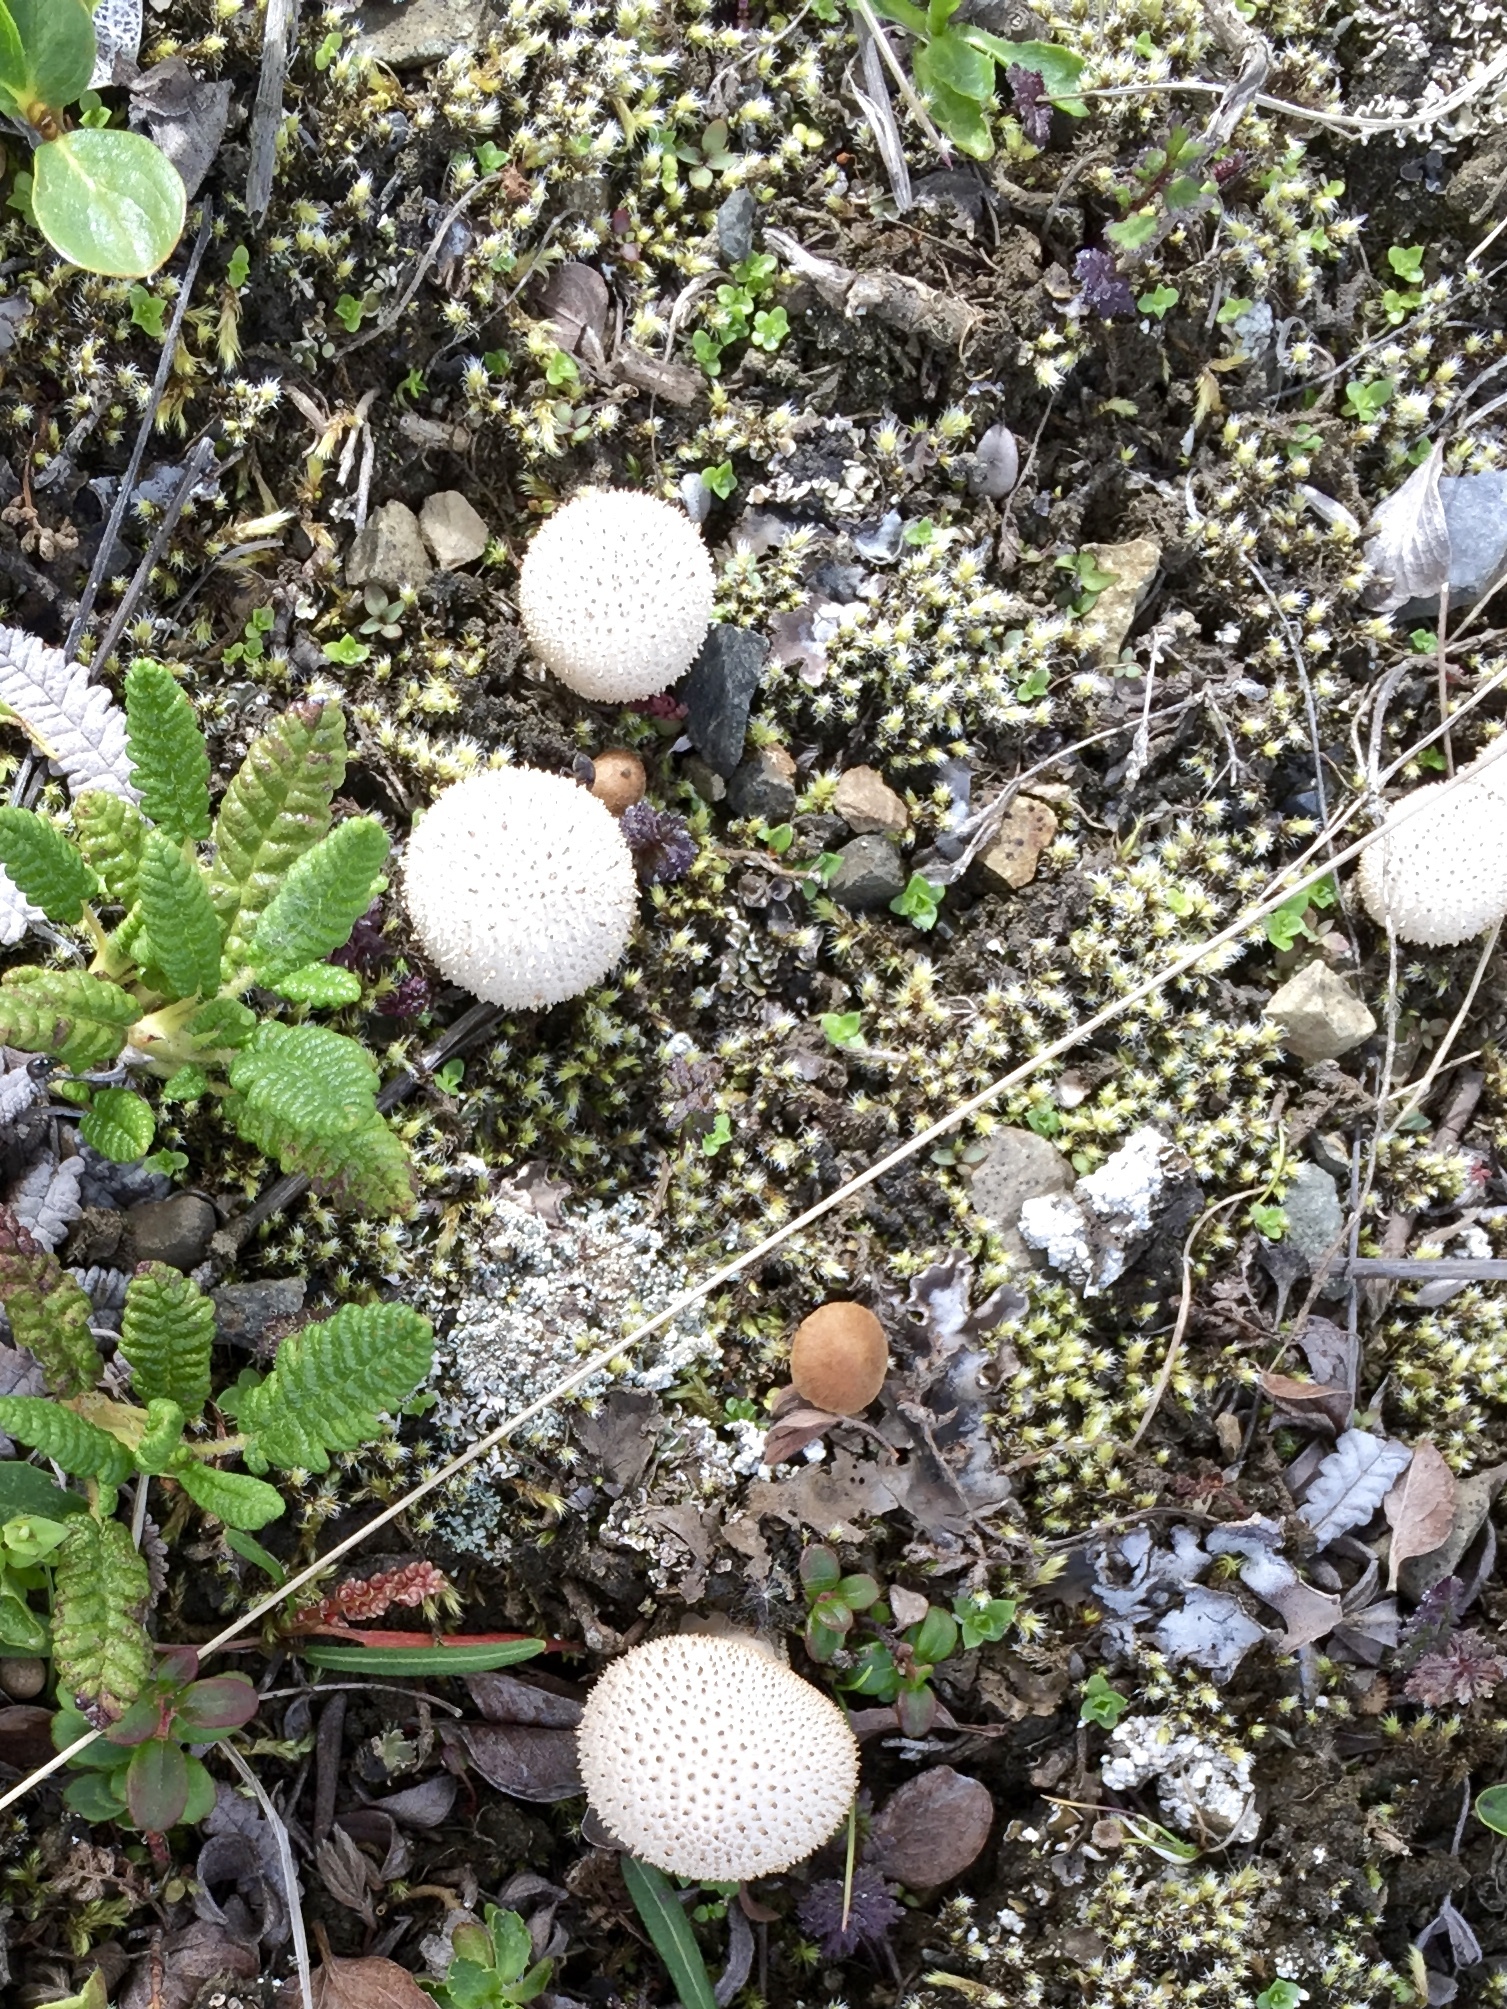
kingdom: Fungi
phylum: Basidiomycota
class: Agaricomycetes
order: Agaricales
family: Lycoperdaceae
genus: Lycoperdon
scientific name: Lycoperdon perlatum
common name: Common puffball
